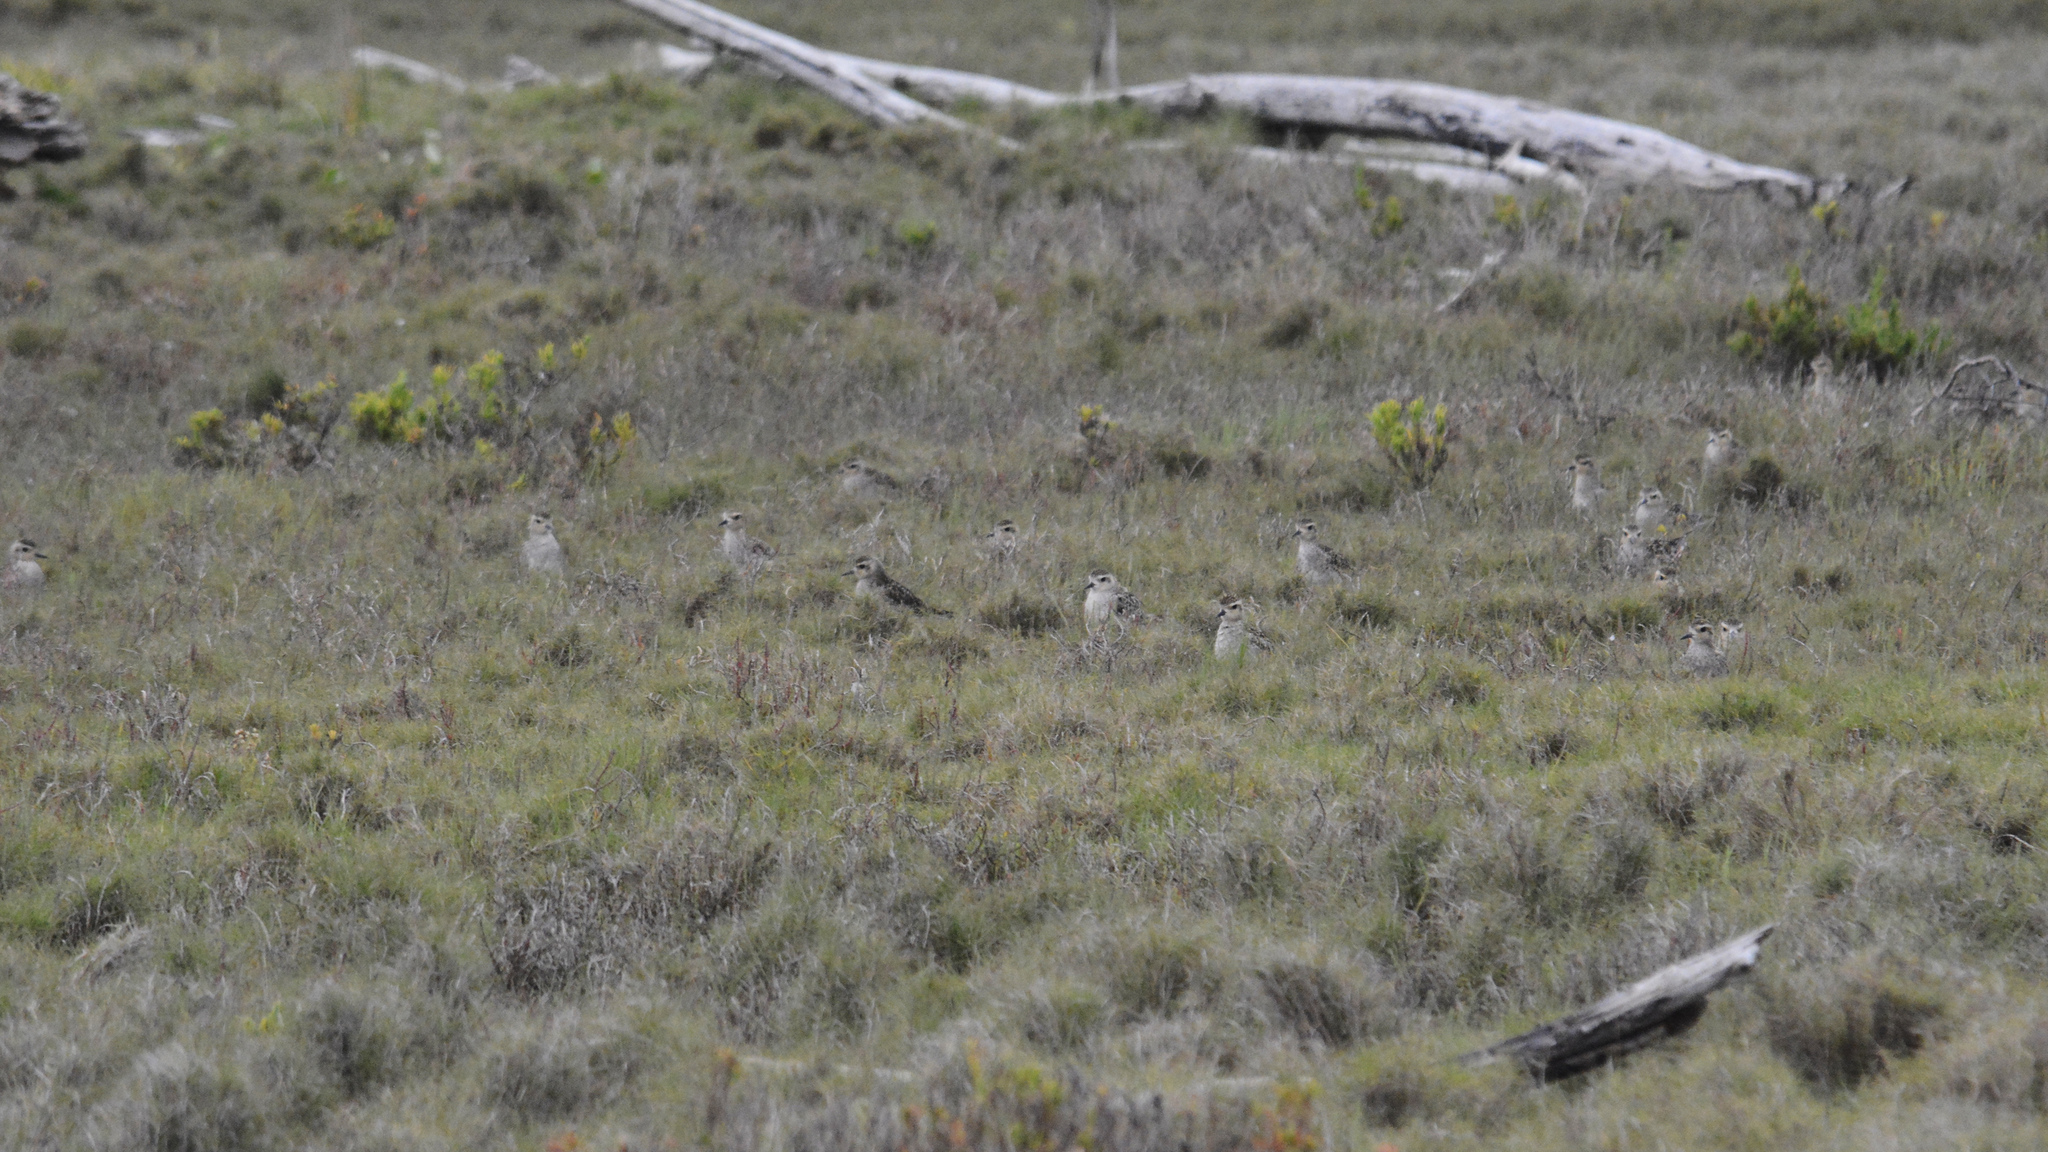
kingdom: Animalia
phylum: Chordata
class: Aves
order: Charadriiformes
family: Charadriidae
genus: Pluvialis
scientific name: Pluvialis fulva
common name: Pacific golden plover
